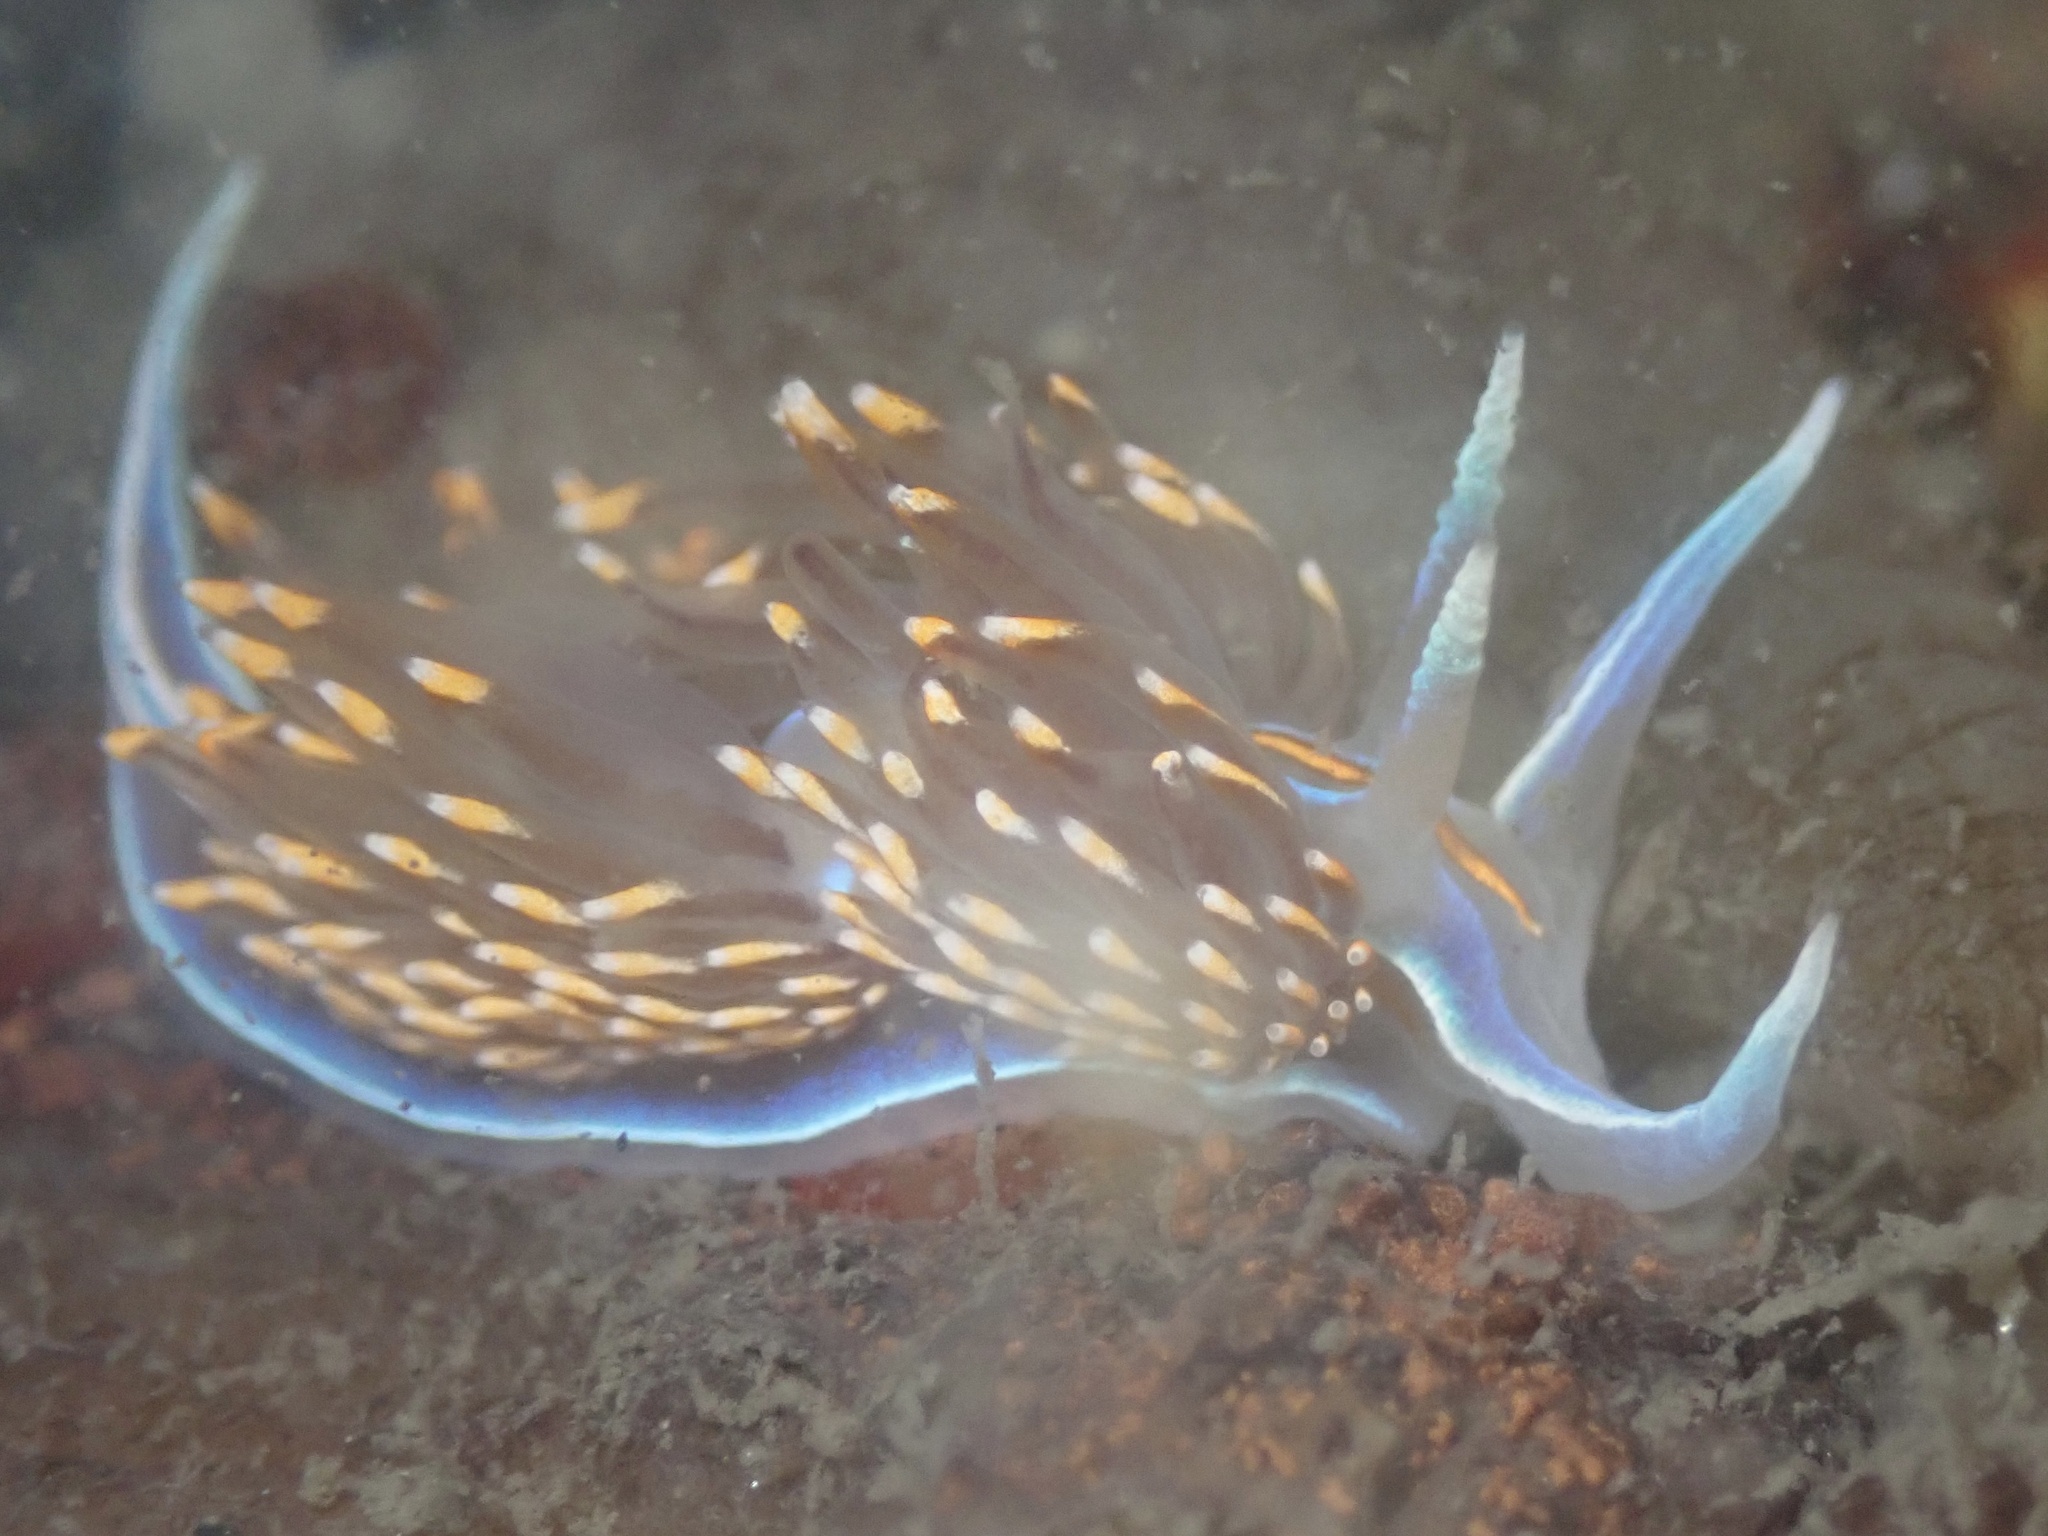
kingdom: Animalia
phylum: Mollusca
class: Gastropoda
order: Nudibranchia
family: Myrrhinidae
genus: Hermissenda
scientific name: Hermissenda opalescens
